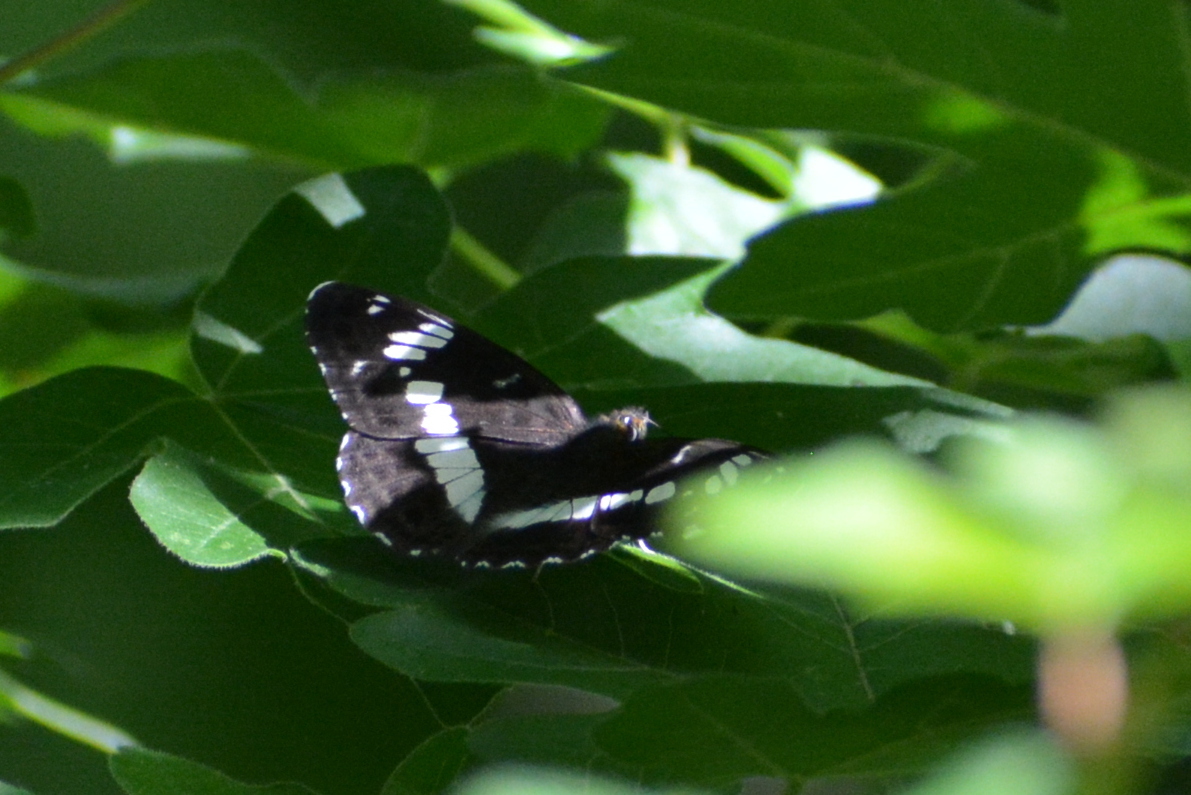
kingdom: Animalia
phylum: Arthropoda
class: Insecta
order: Lepidoptera
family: Nymphalidae
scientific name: Nymphalidae
